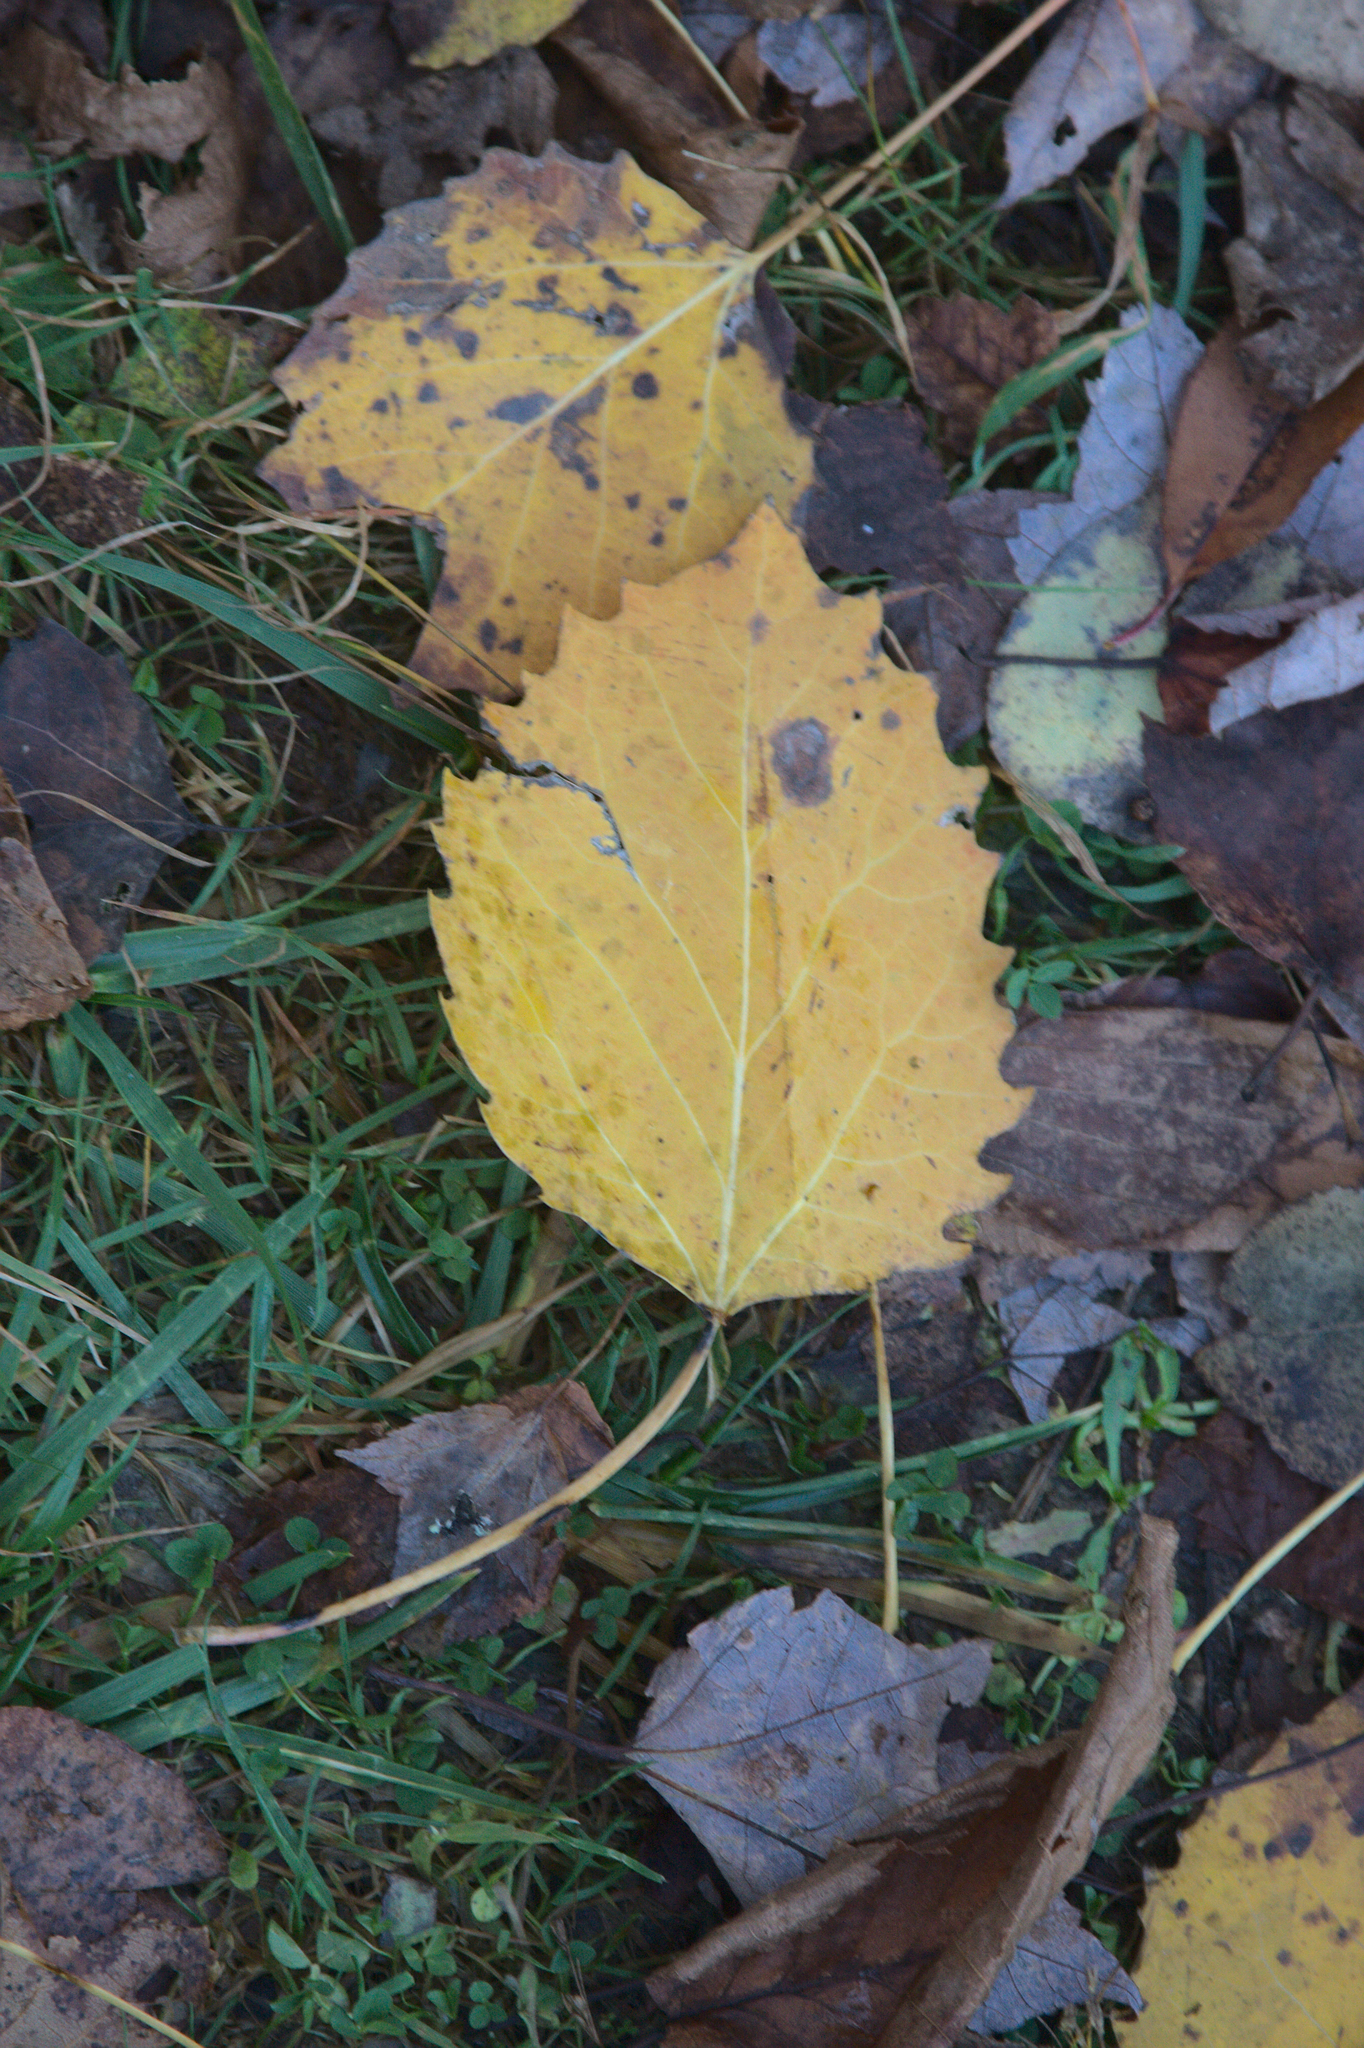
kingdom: Plantae
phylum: Tracheophyta
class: Magnoliopsida
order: Malpighiales
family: Salicaceae
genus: Populus
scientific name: Populus grandidentata
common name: Bigtooth aspen
